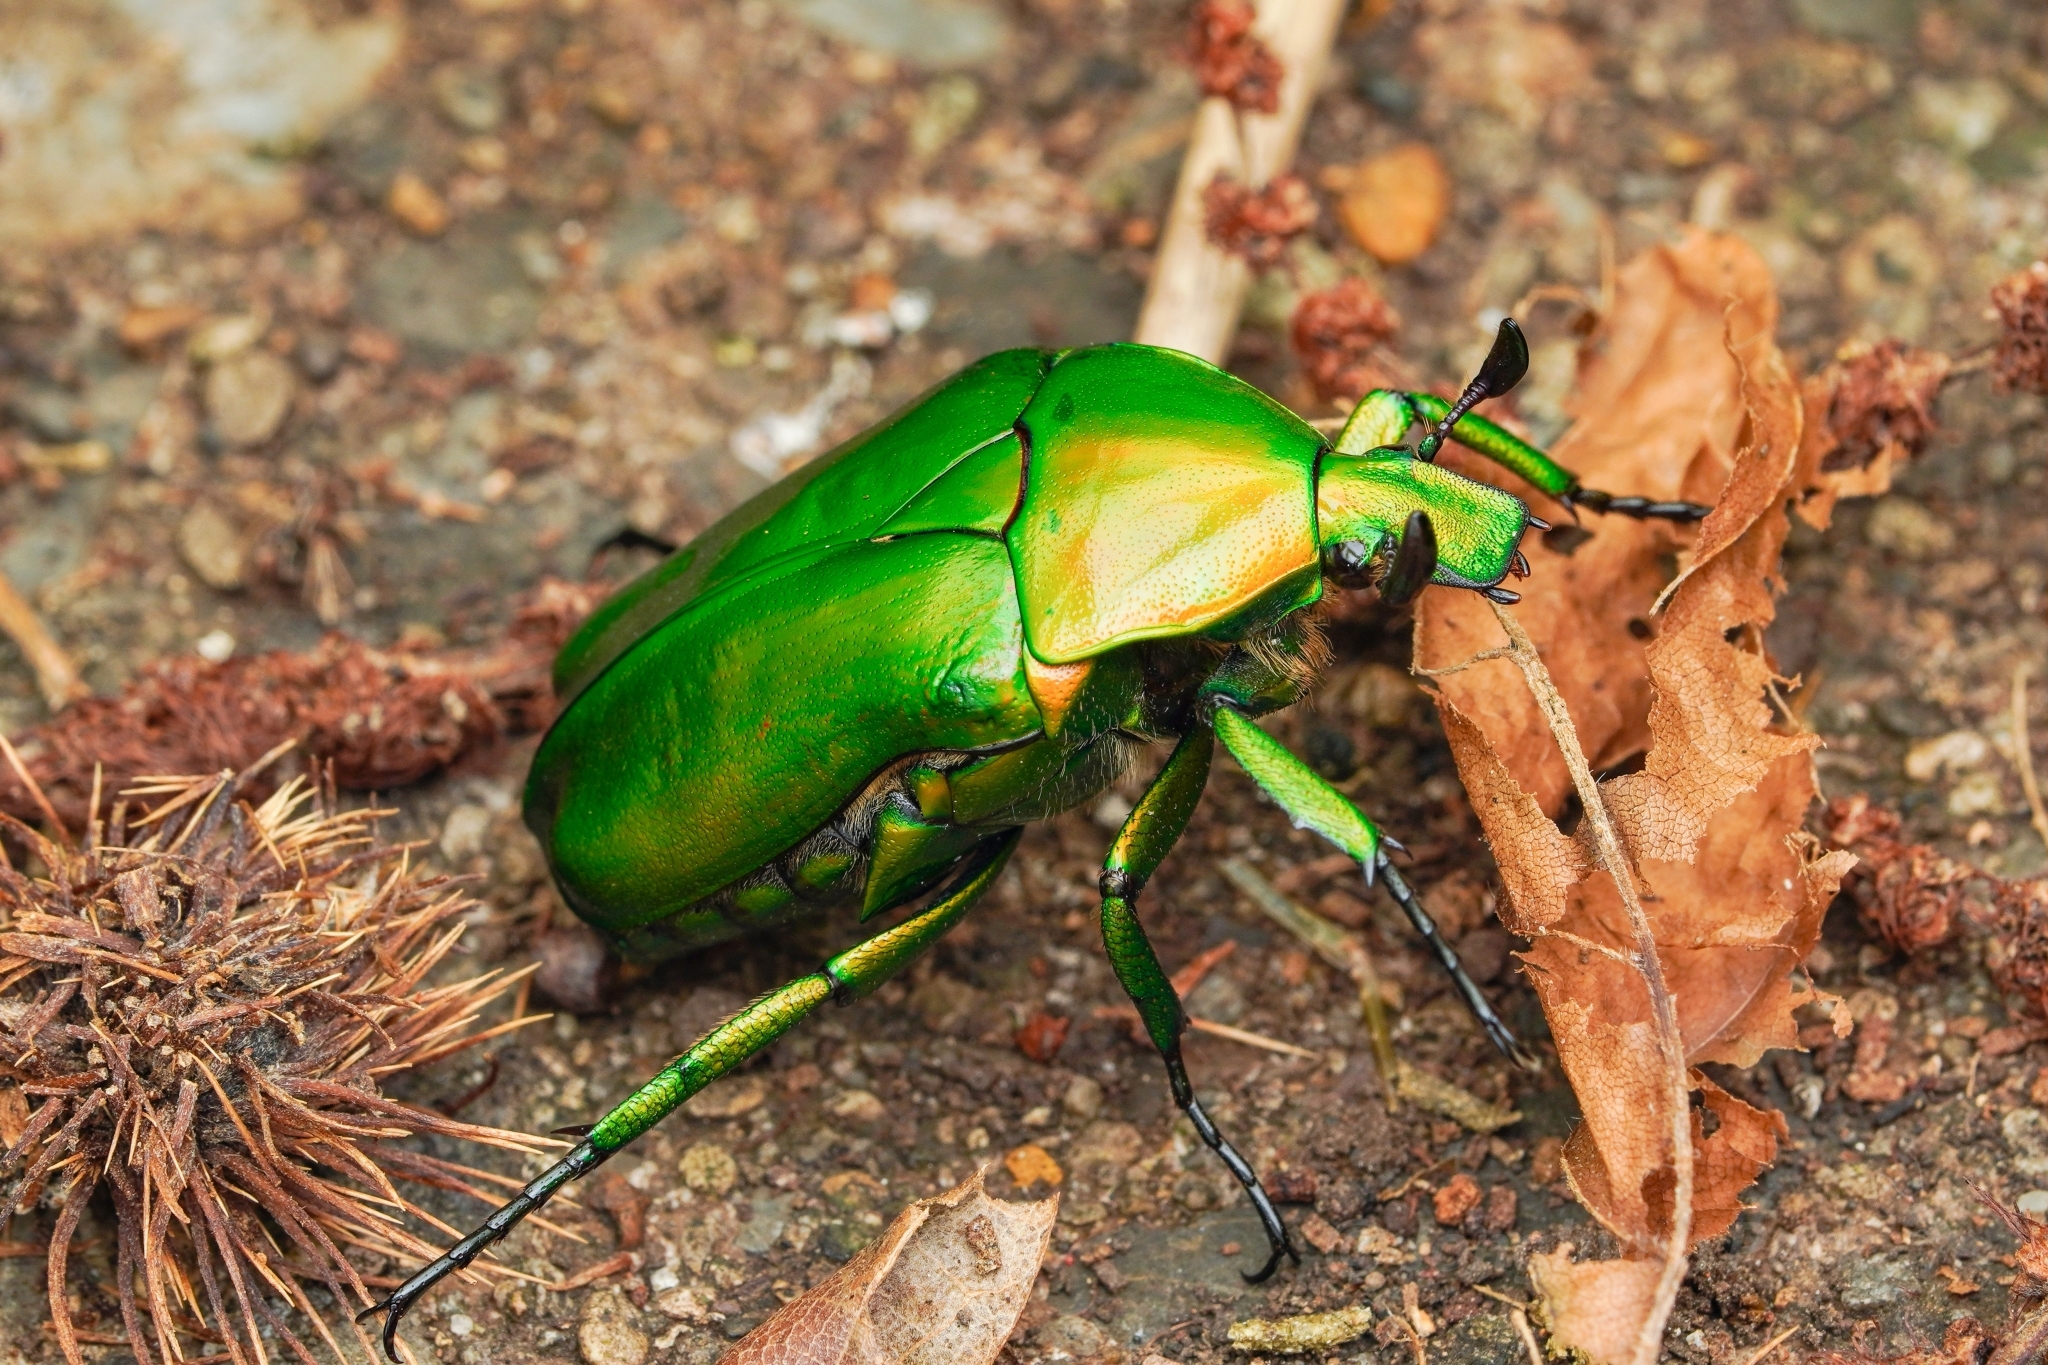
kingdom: Animalia
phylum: Arthropoda
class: Insecta
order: Coleoptera
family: Scarabaeidae
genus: Rhomborhina
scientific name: Rhomborhina unicolor
